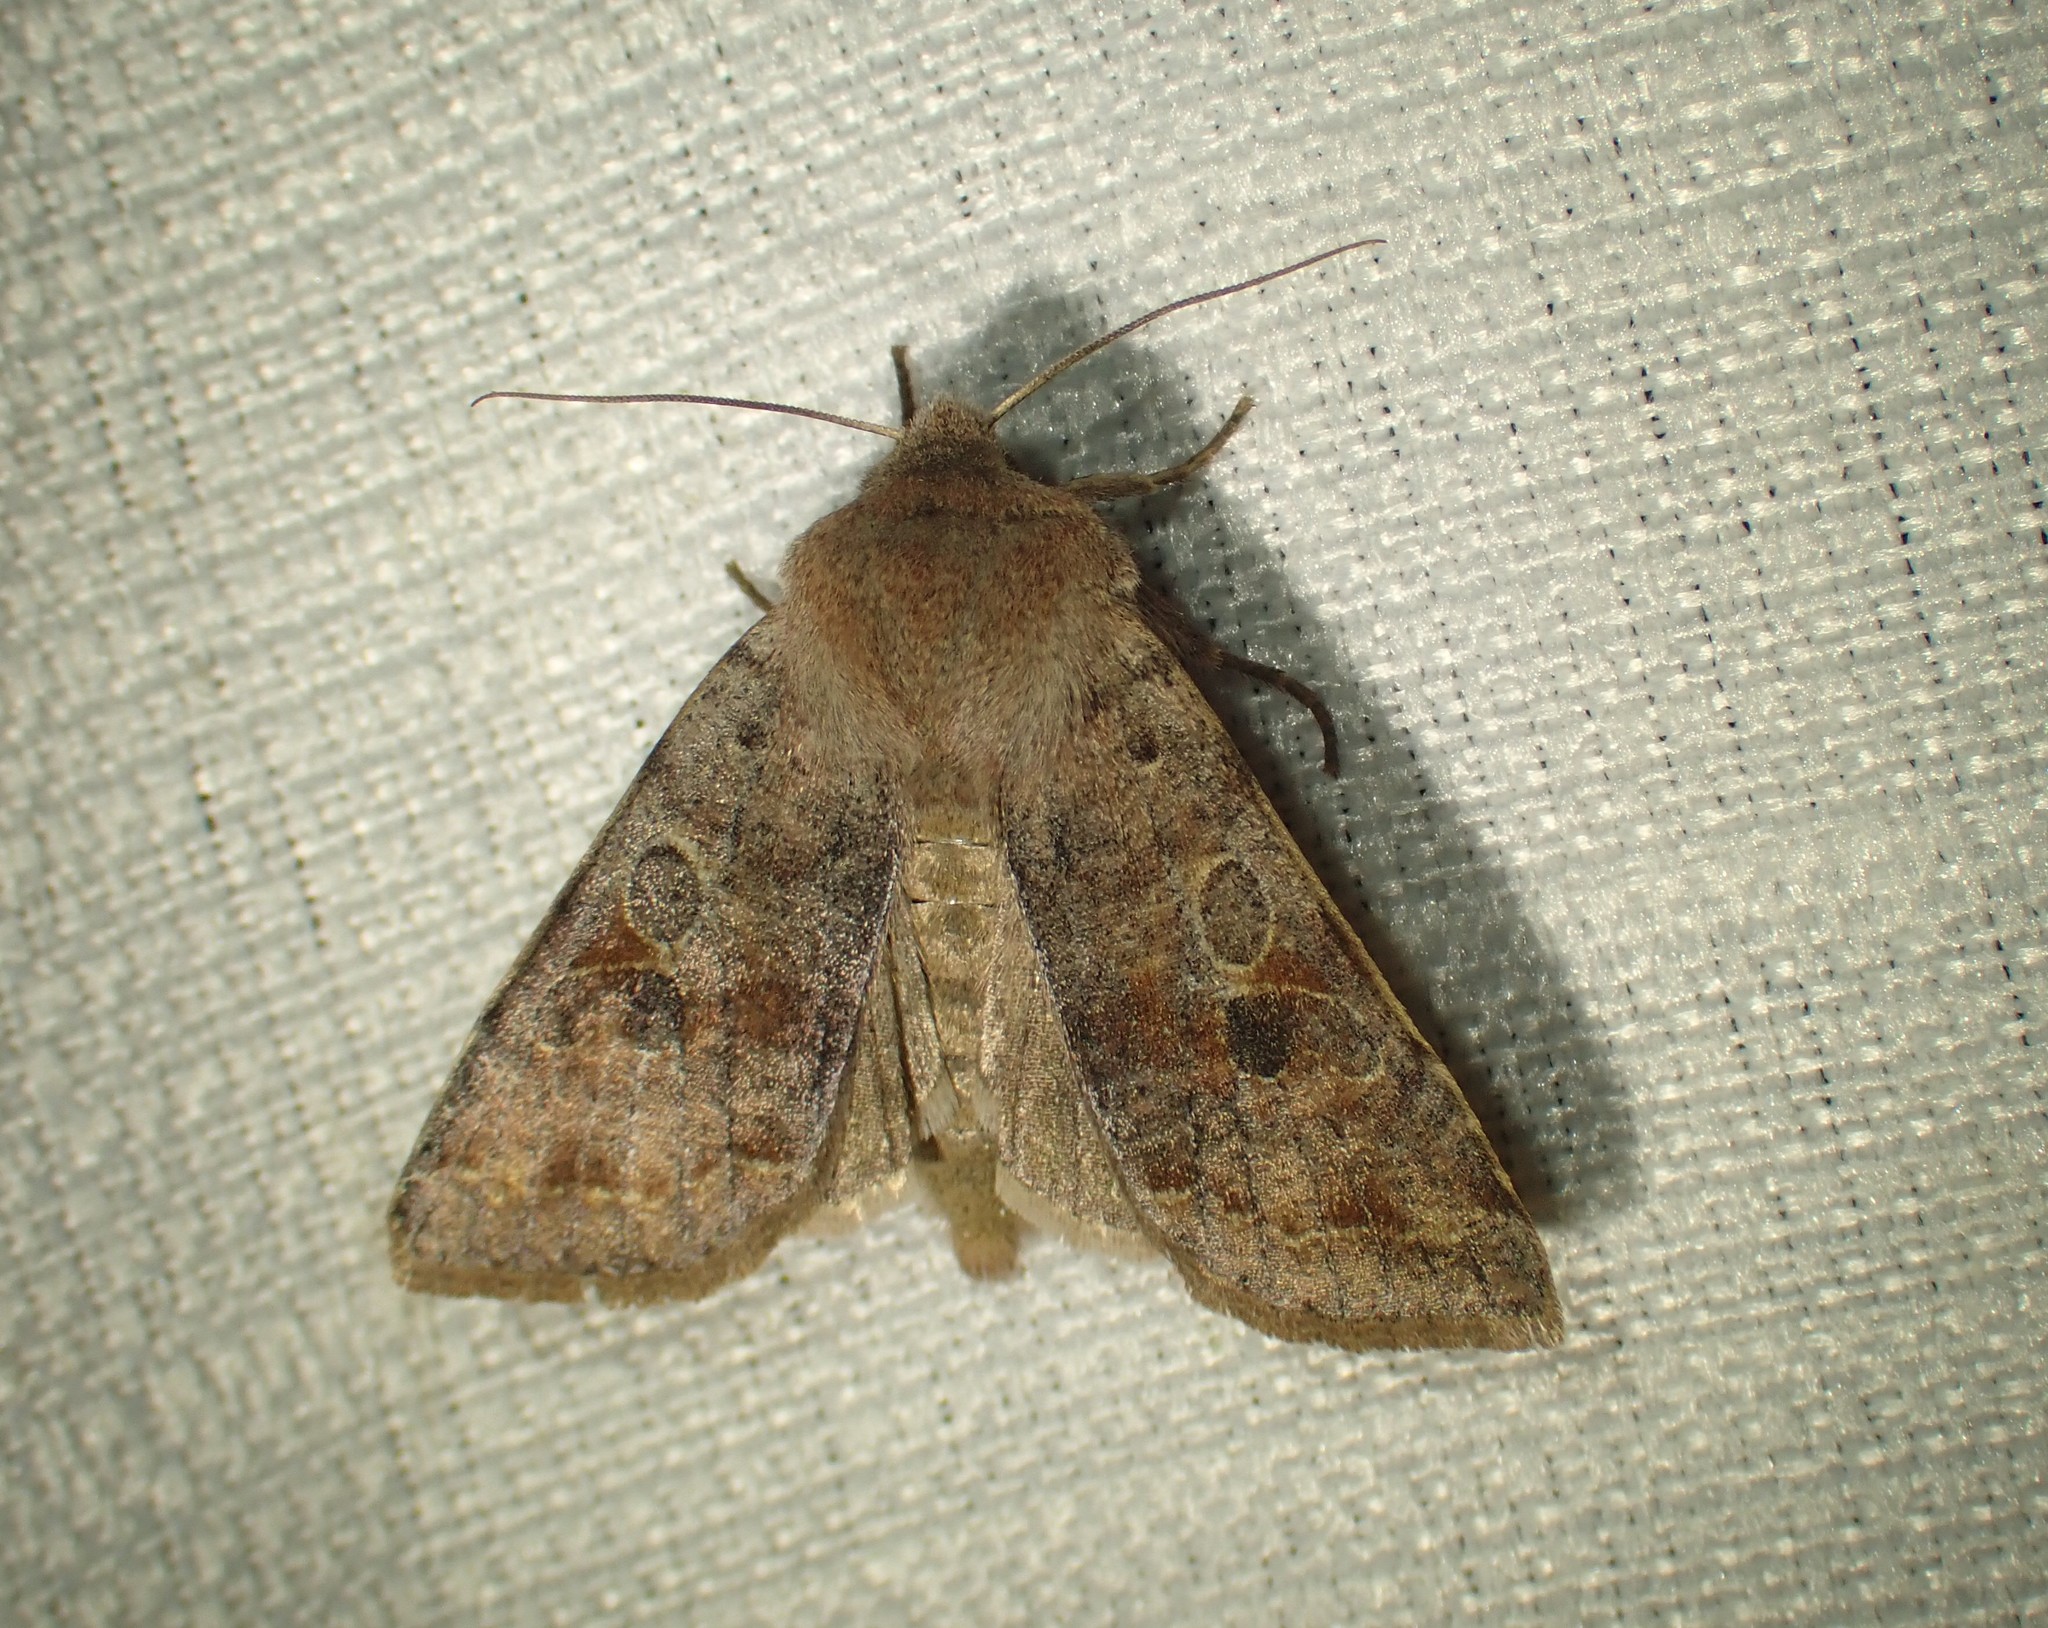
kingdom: Animalia
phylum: Arthropoda
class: Insecta
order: Lepidoptera
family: Noctuidae
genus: Orthosia
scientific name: Orthosia hibisci
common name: Green fruitworm
